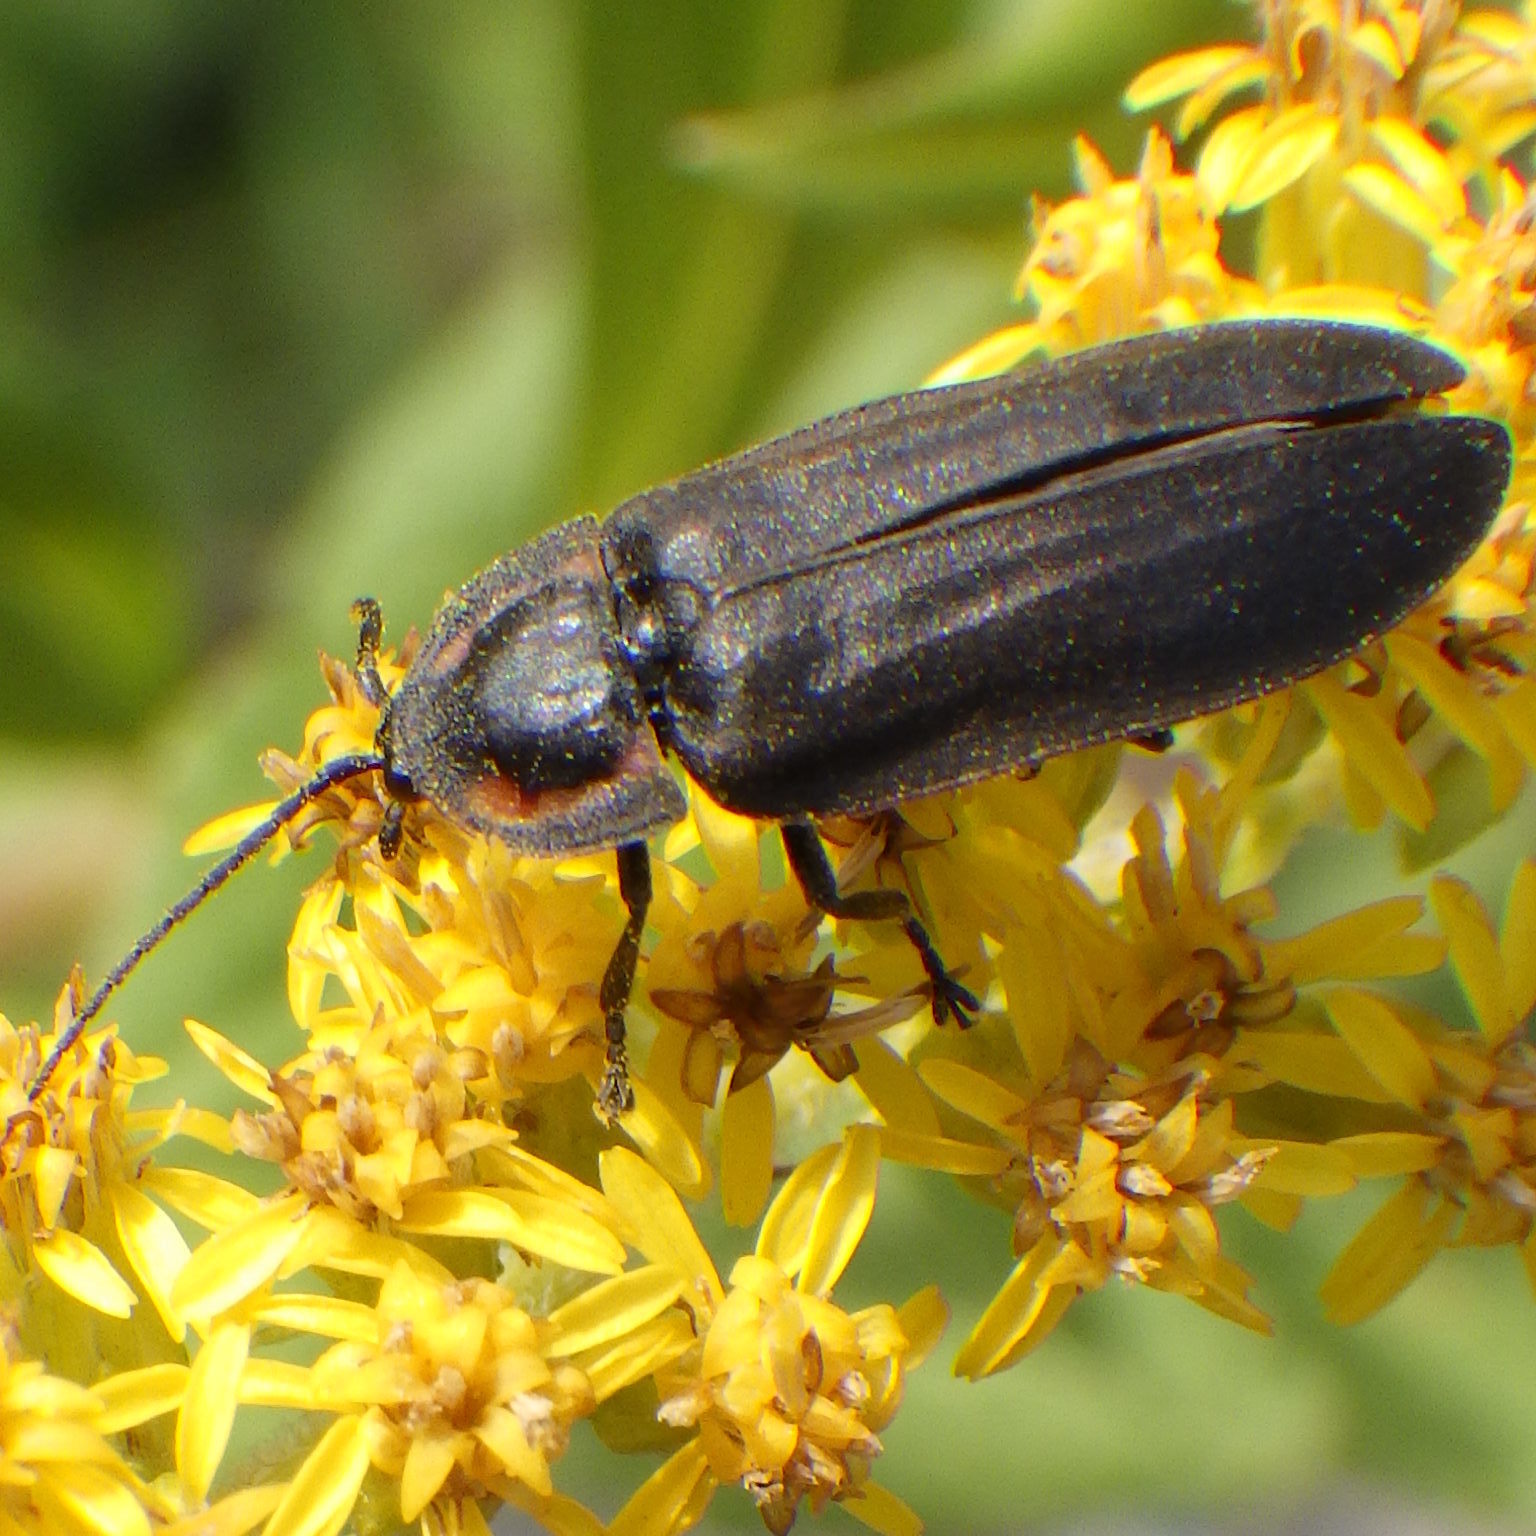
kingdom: Animalia
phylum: Arthropoda
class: Insecta
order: Coleoptera
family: Lampyridae
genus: Photinus
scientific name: Photinus corrusca
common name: Winter firefly
